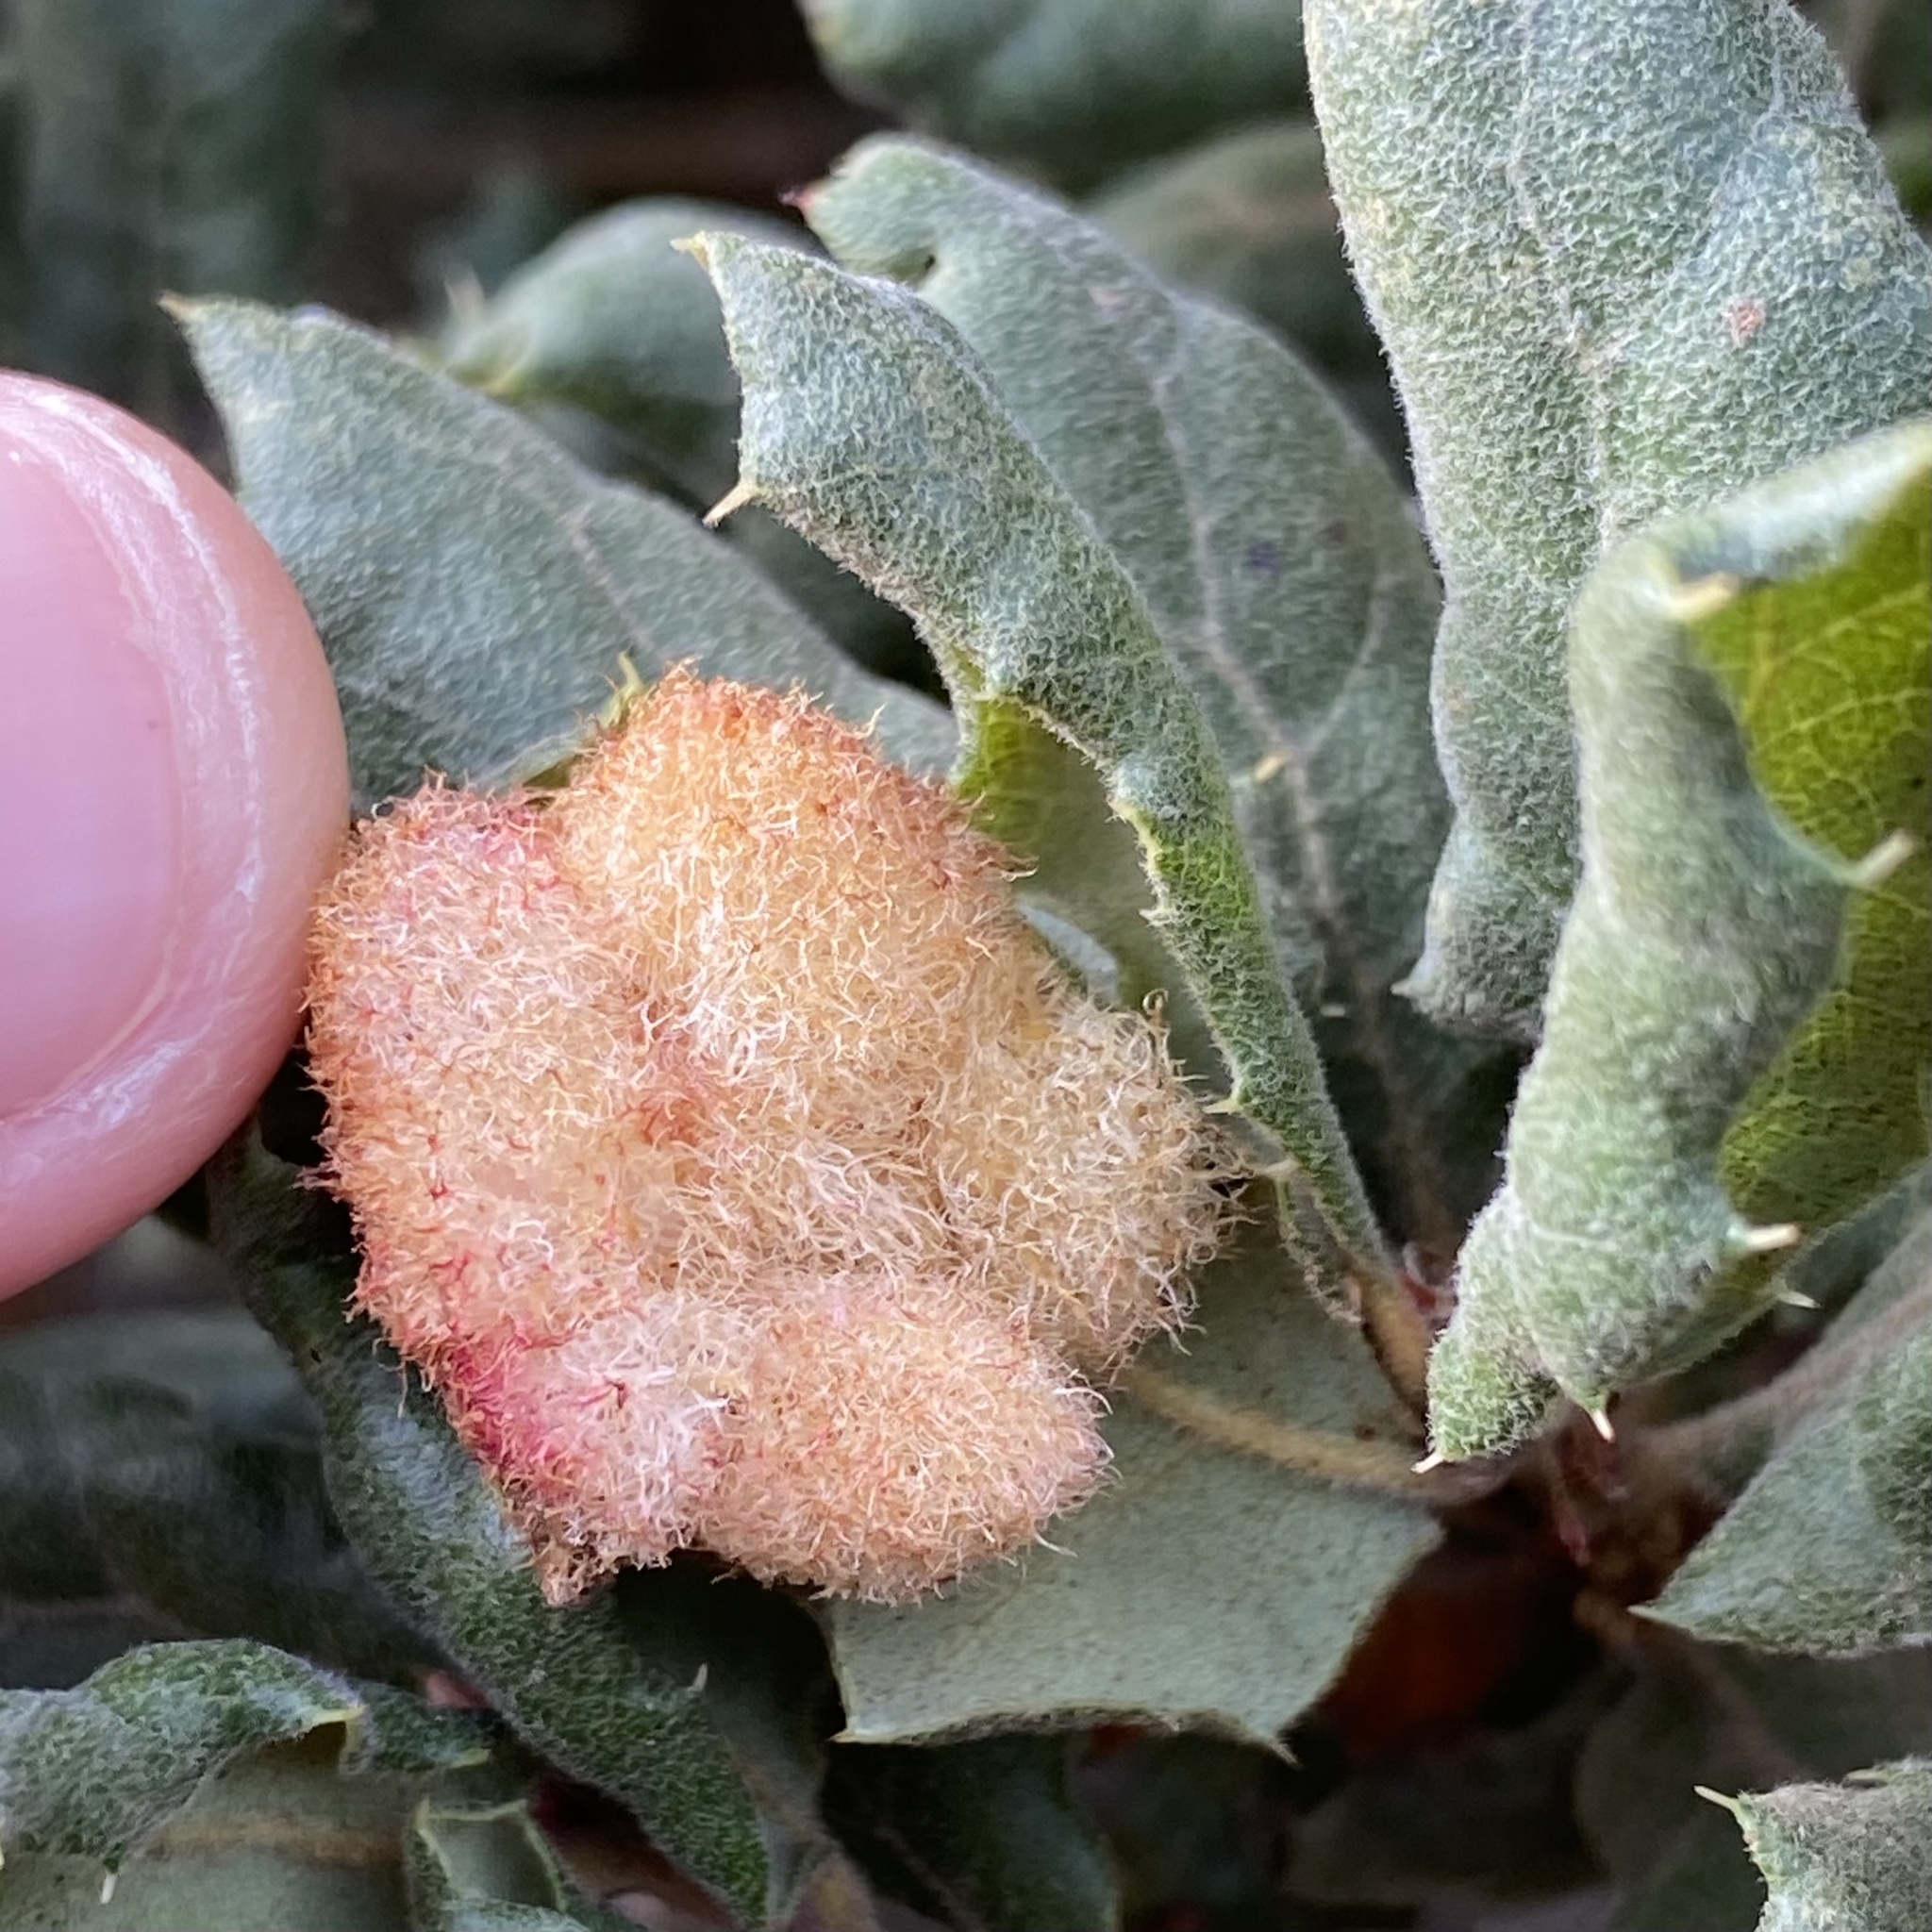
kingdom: Animalia
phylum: Arthropoda
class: Insecta
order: Hymenoptera
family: Cynipidae
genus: Andricus
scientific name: Andricus
